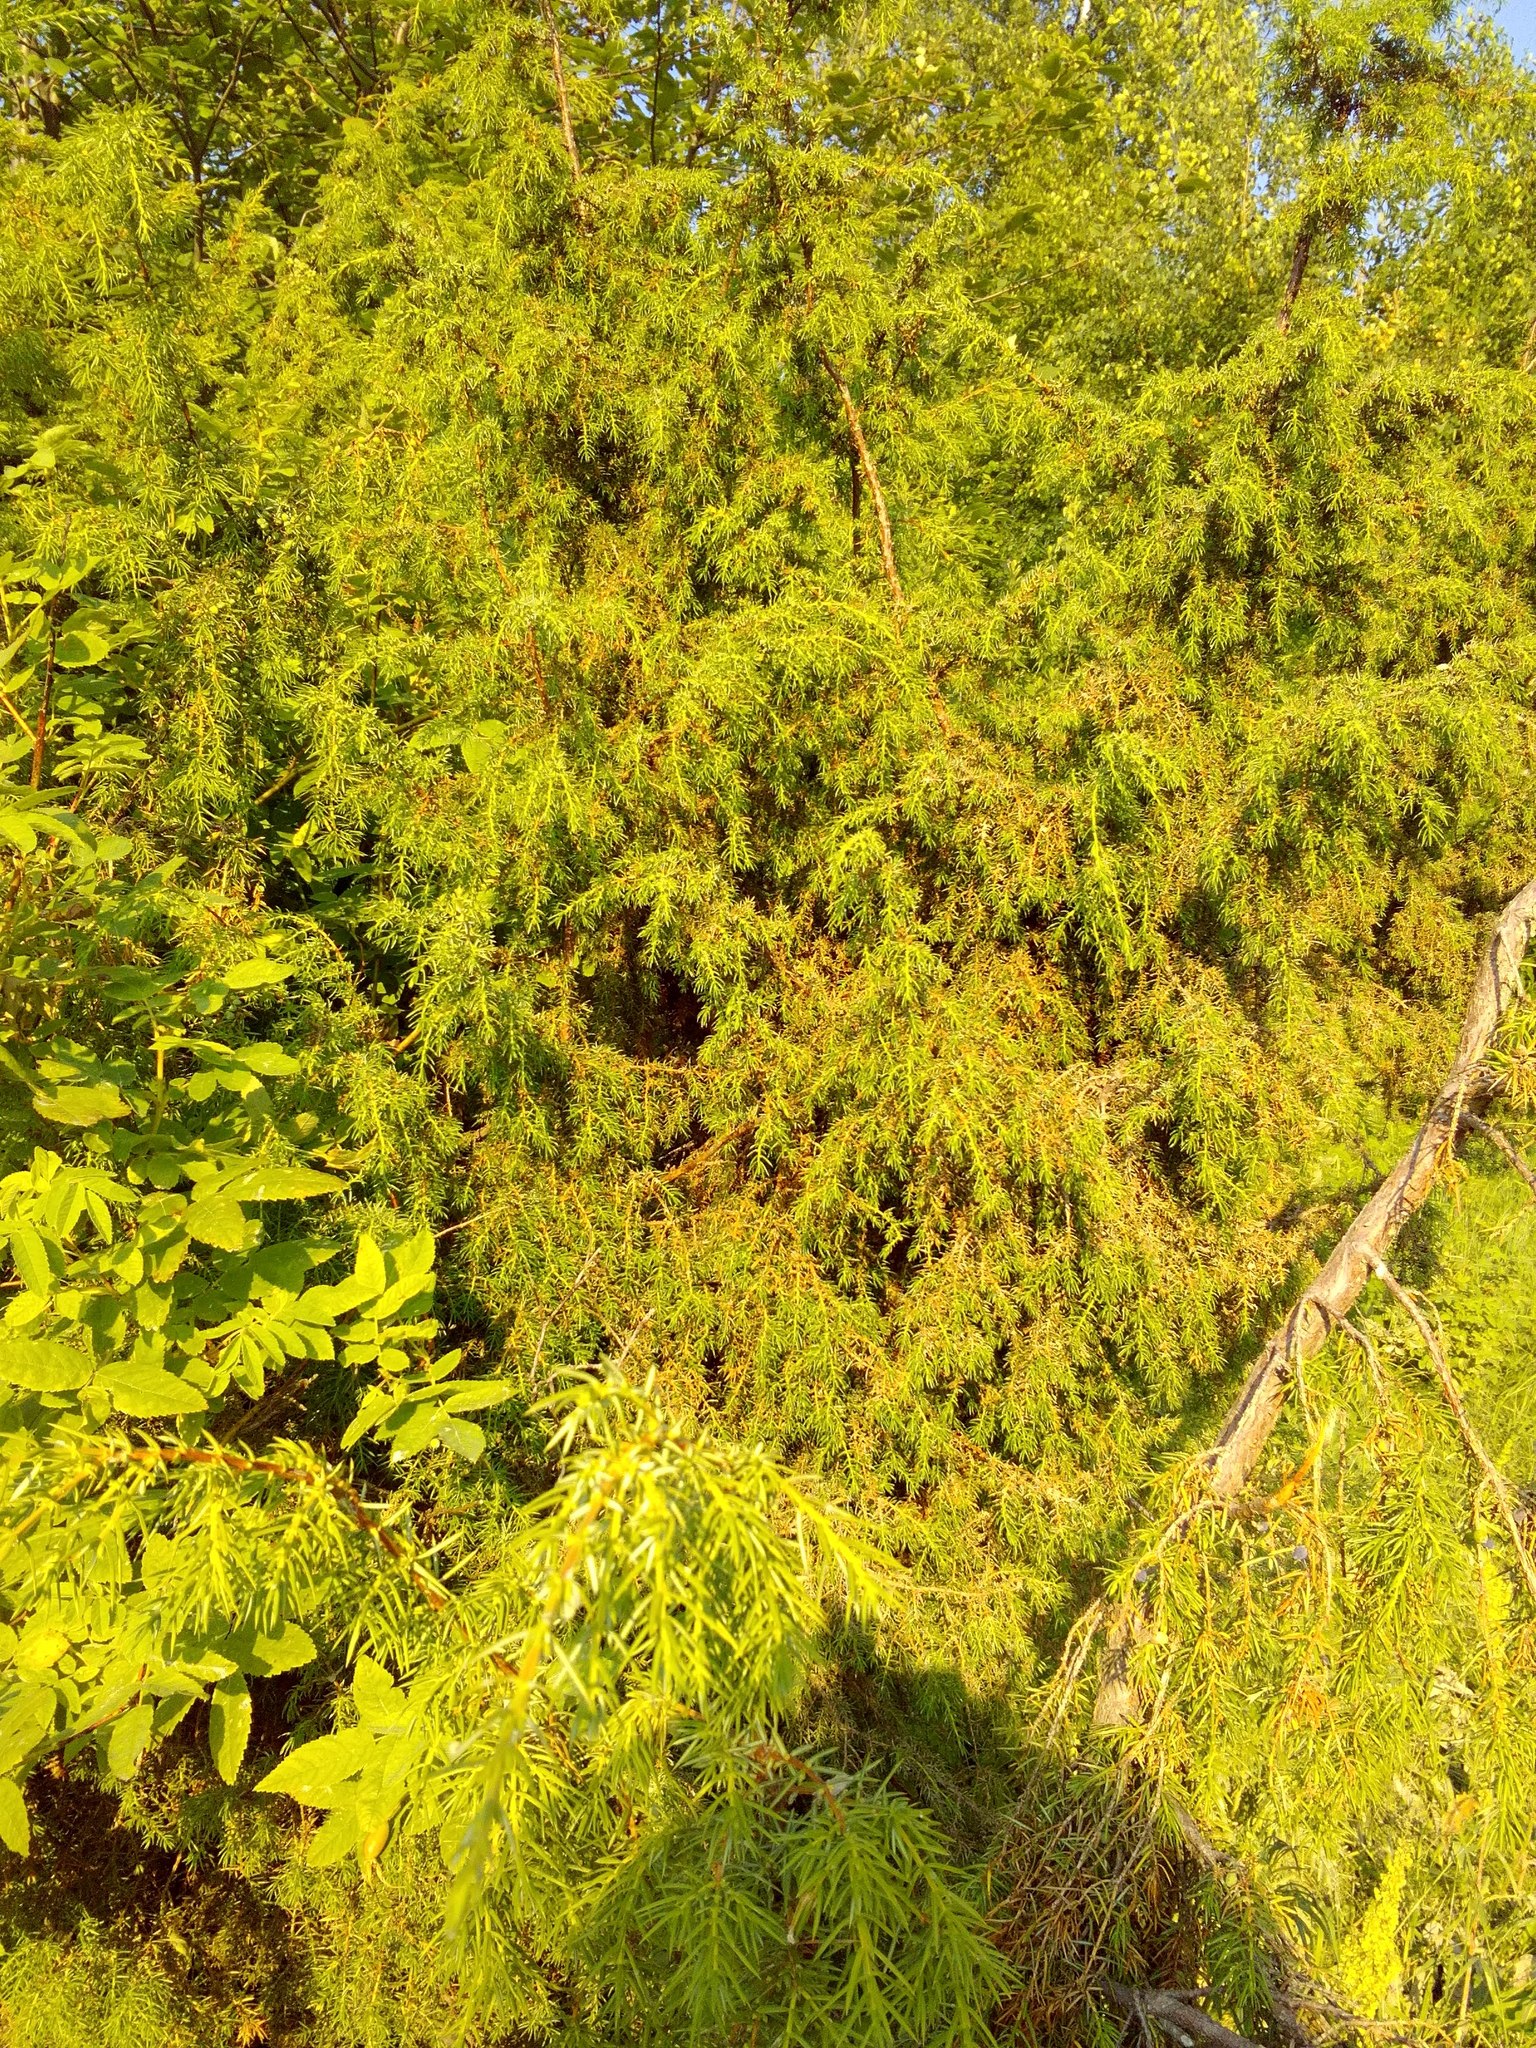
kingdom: Plantae
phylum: Tracheophyta
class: Pinopsida
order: Pinales
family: Cupressaceae
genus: Juniperus
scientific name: Juniperus communis
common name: Common juniper
